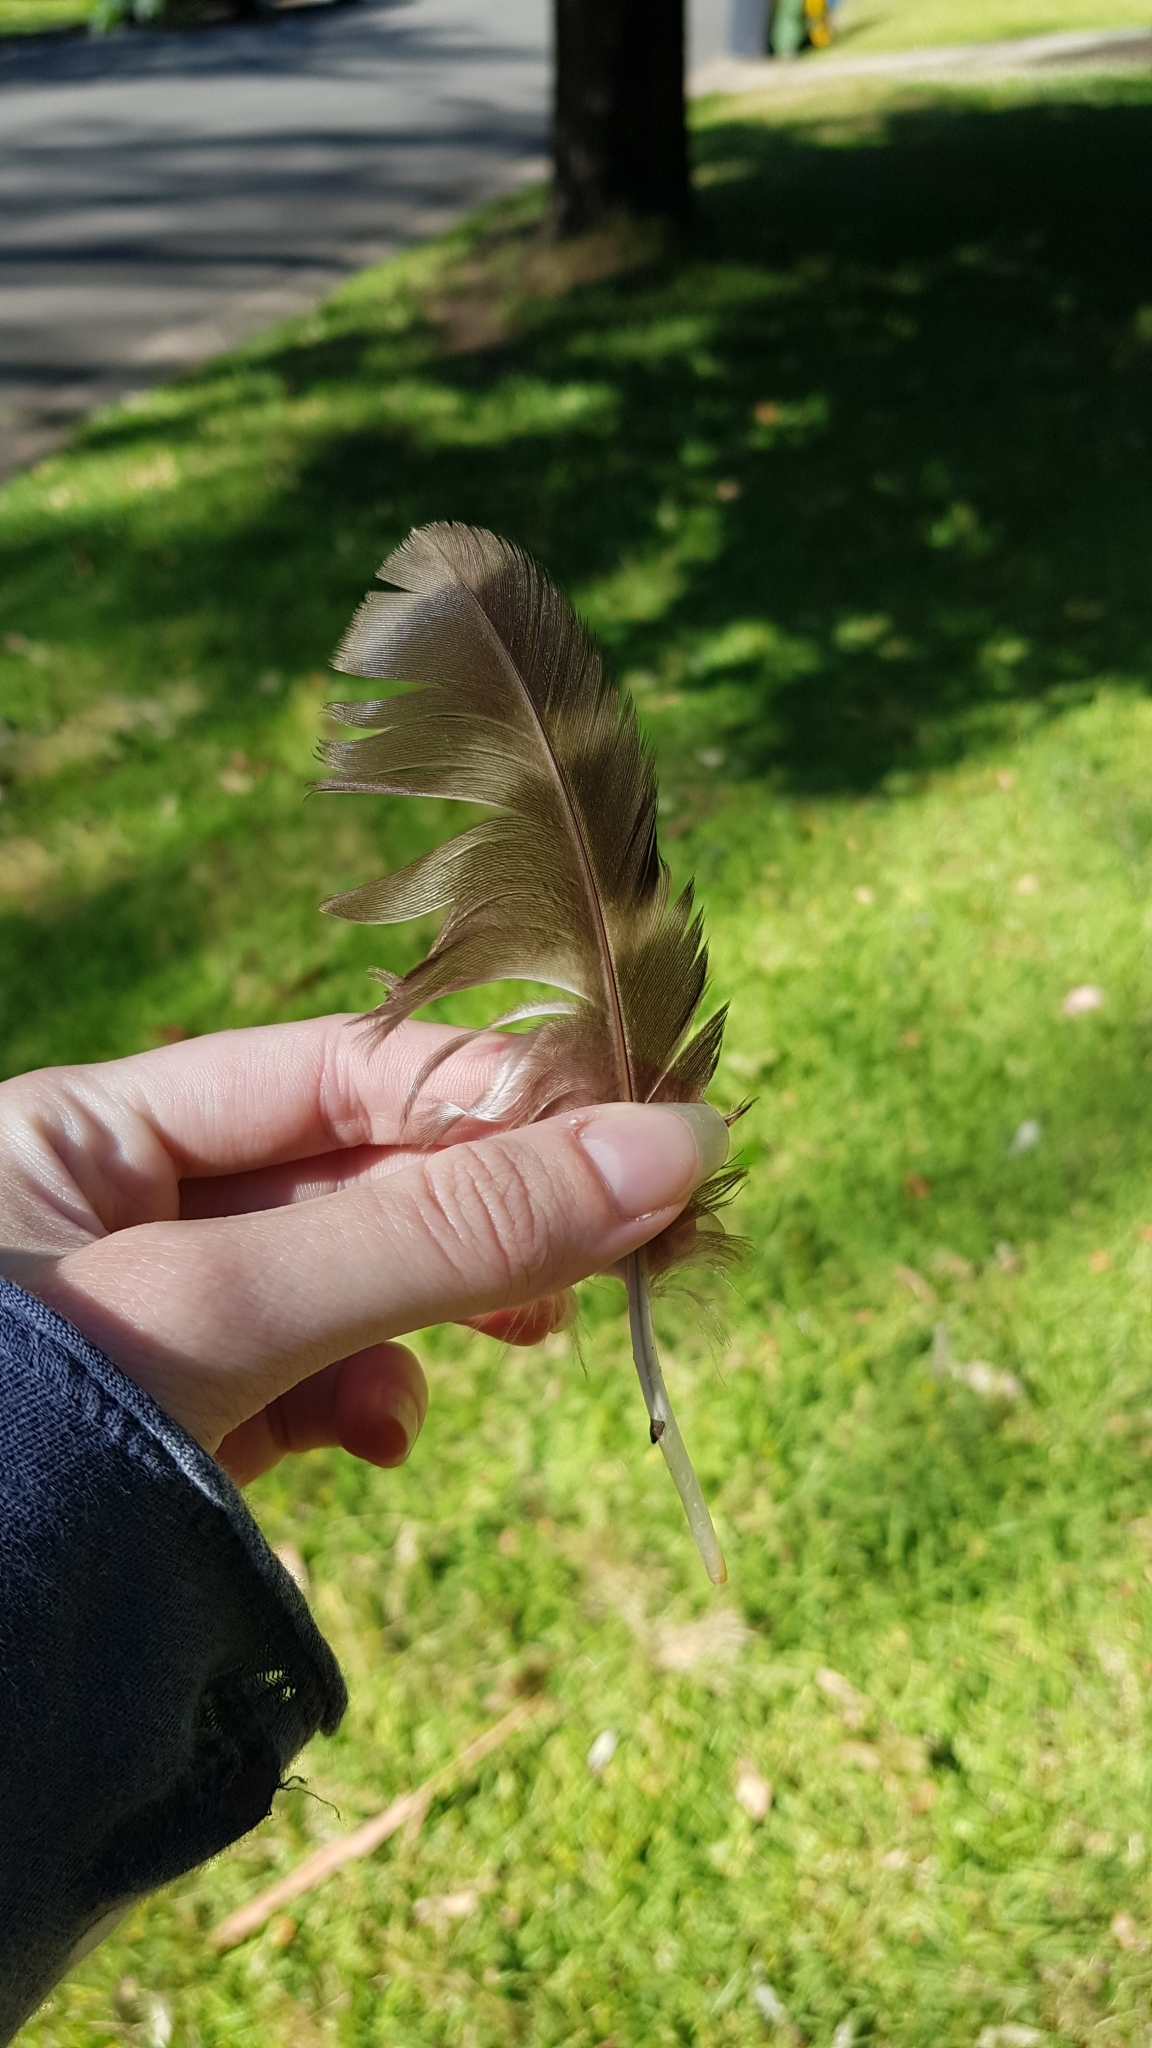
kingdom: Animalia
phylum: Chordata
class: Aves
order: Strigiformes
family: Strigidae
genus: Ninox
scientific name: Ninox strenua
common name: Powerful owl
